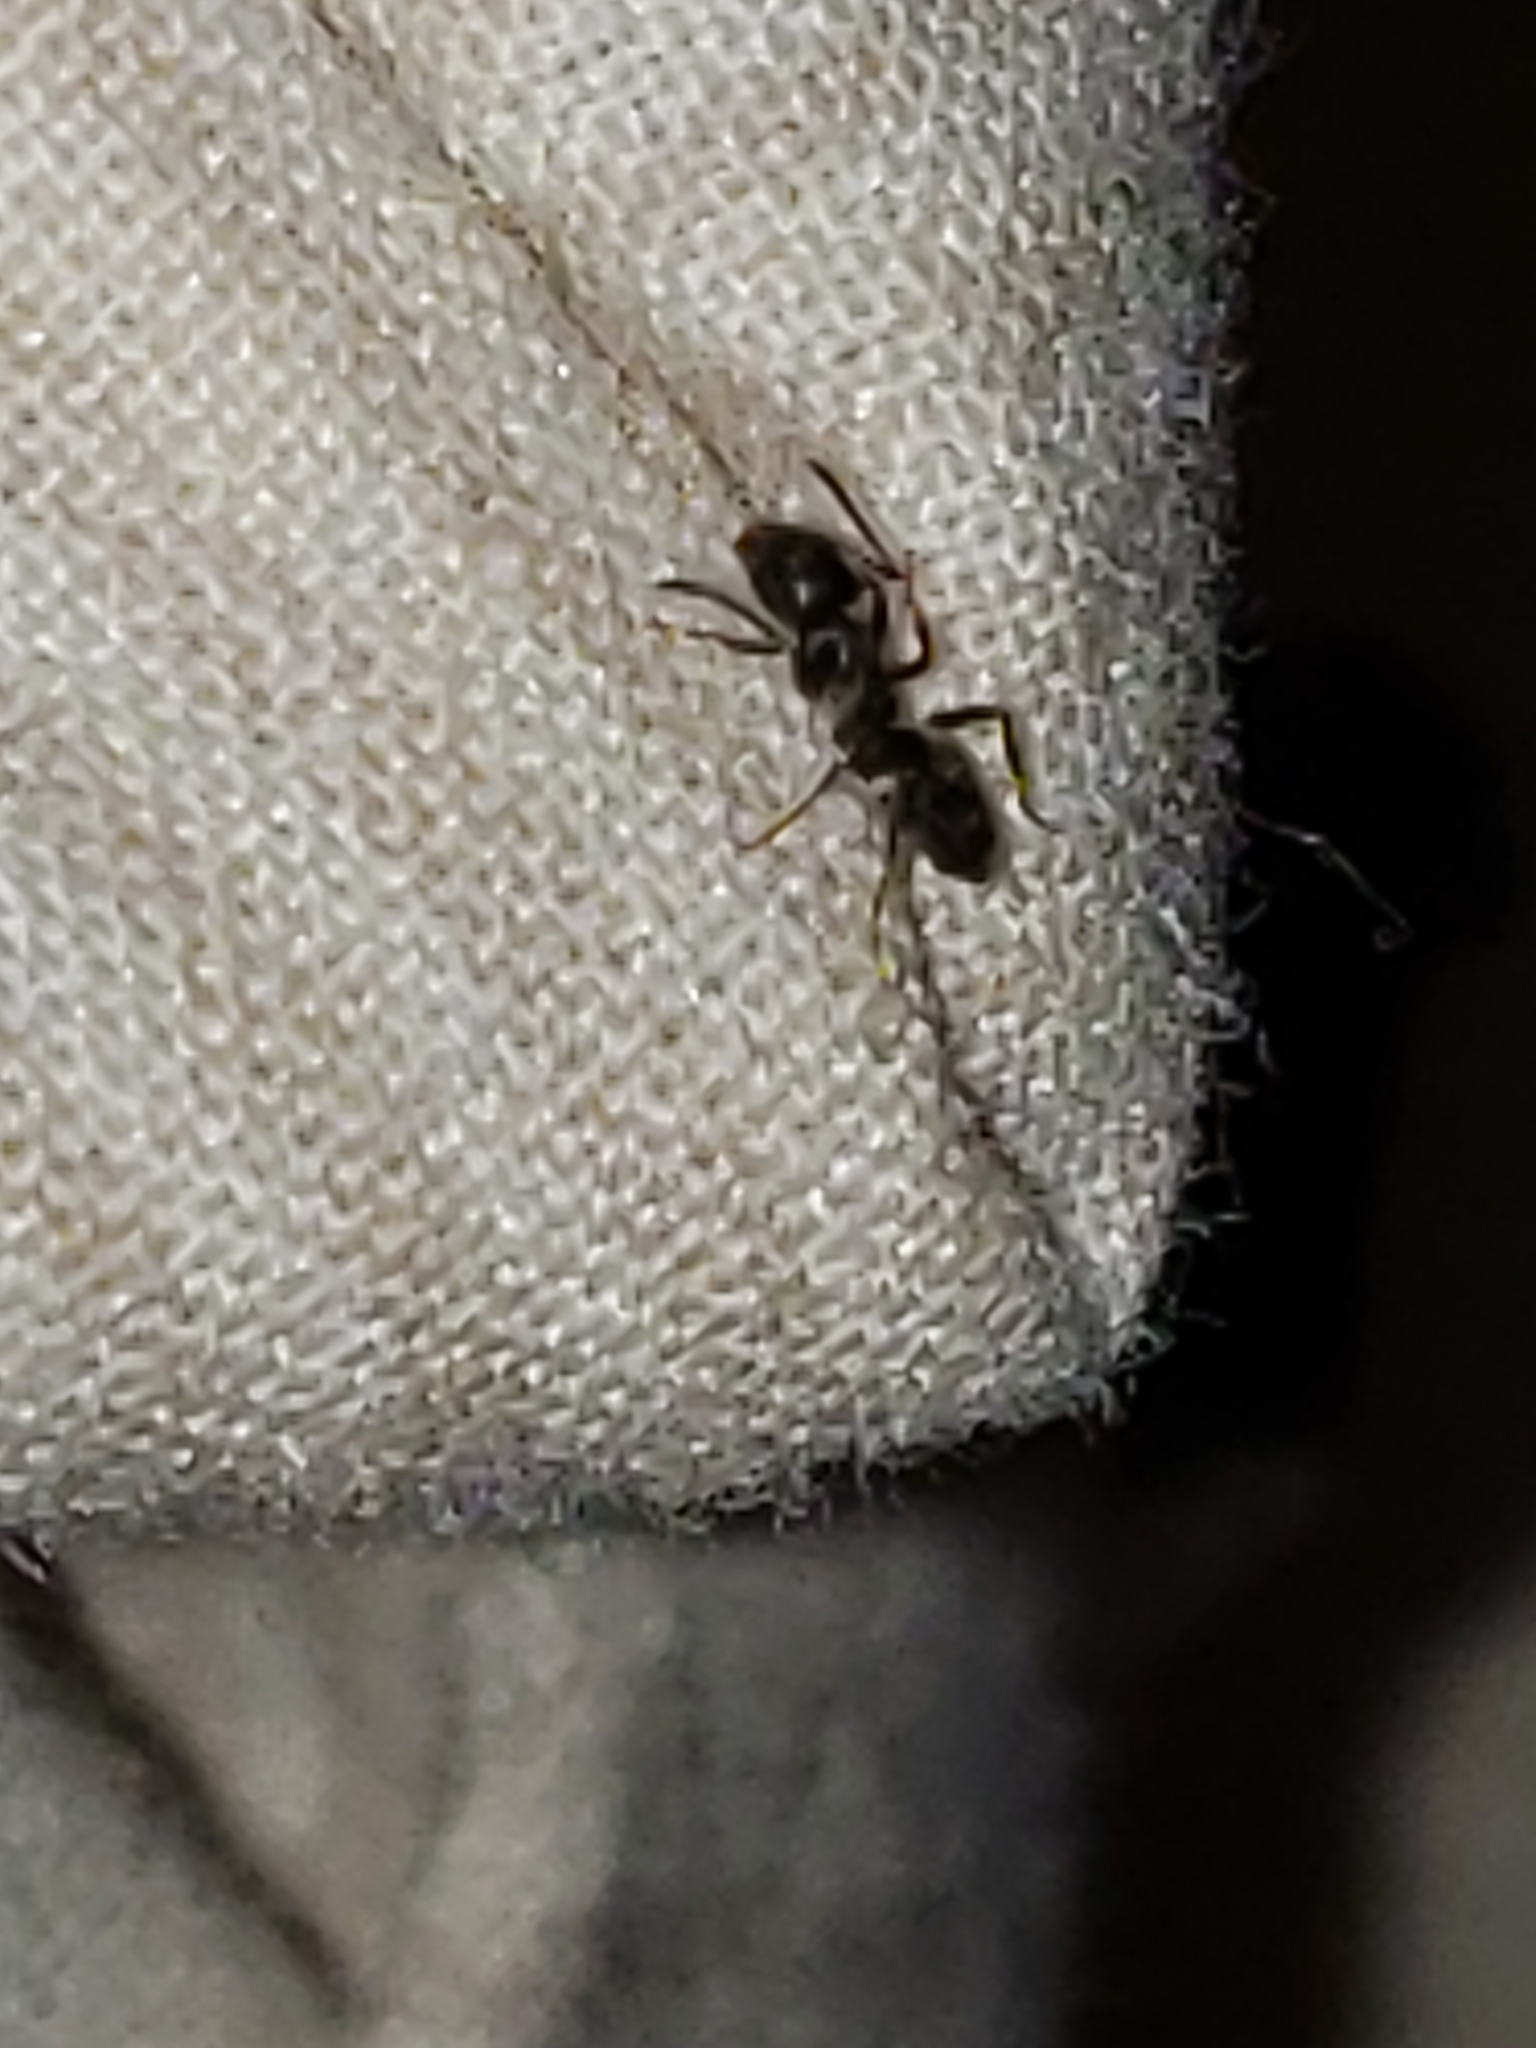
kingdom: Animalia
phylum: Arthropoda
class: Insecta
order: Hymenoptera
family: Formicidae
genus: Tapinoma
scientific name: Tapinoma sessile
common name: Odorous house ant
